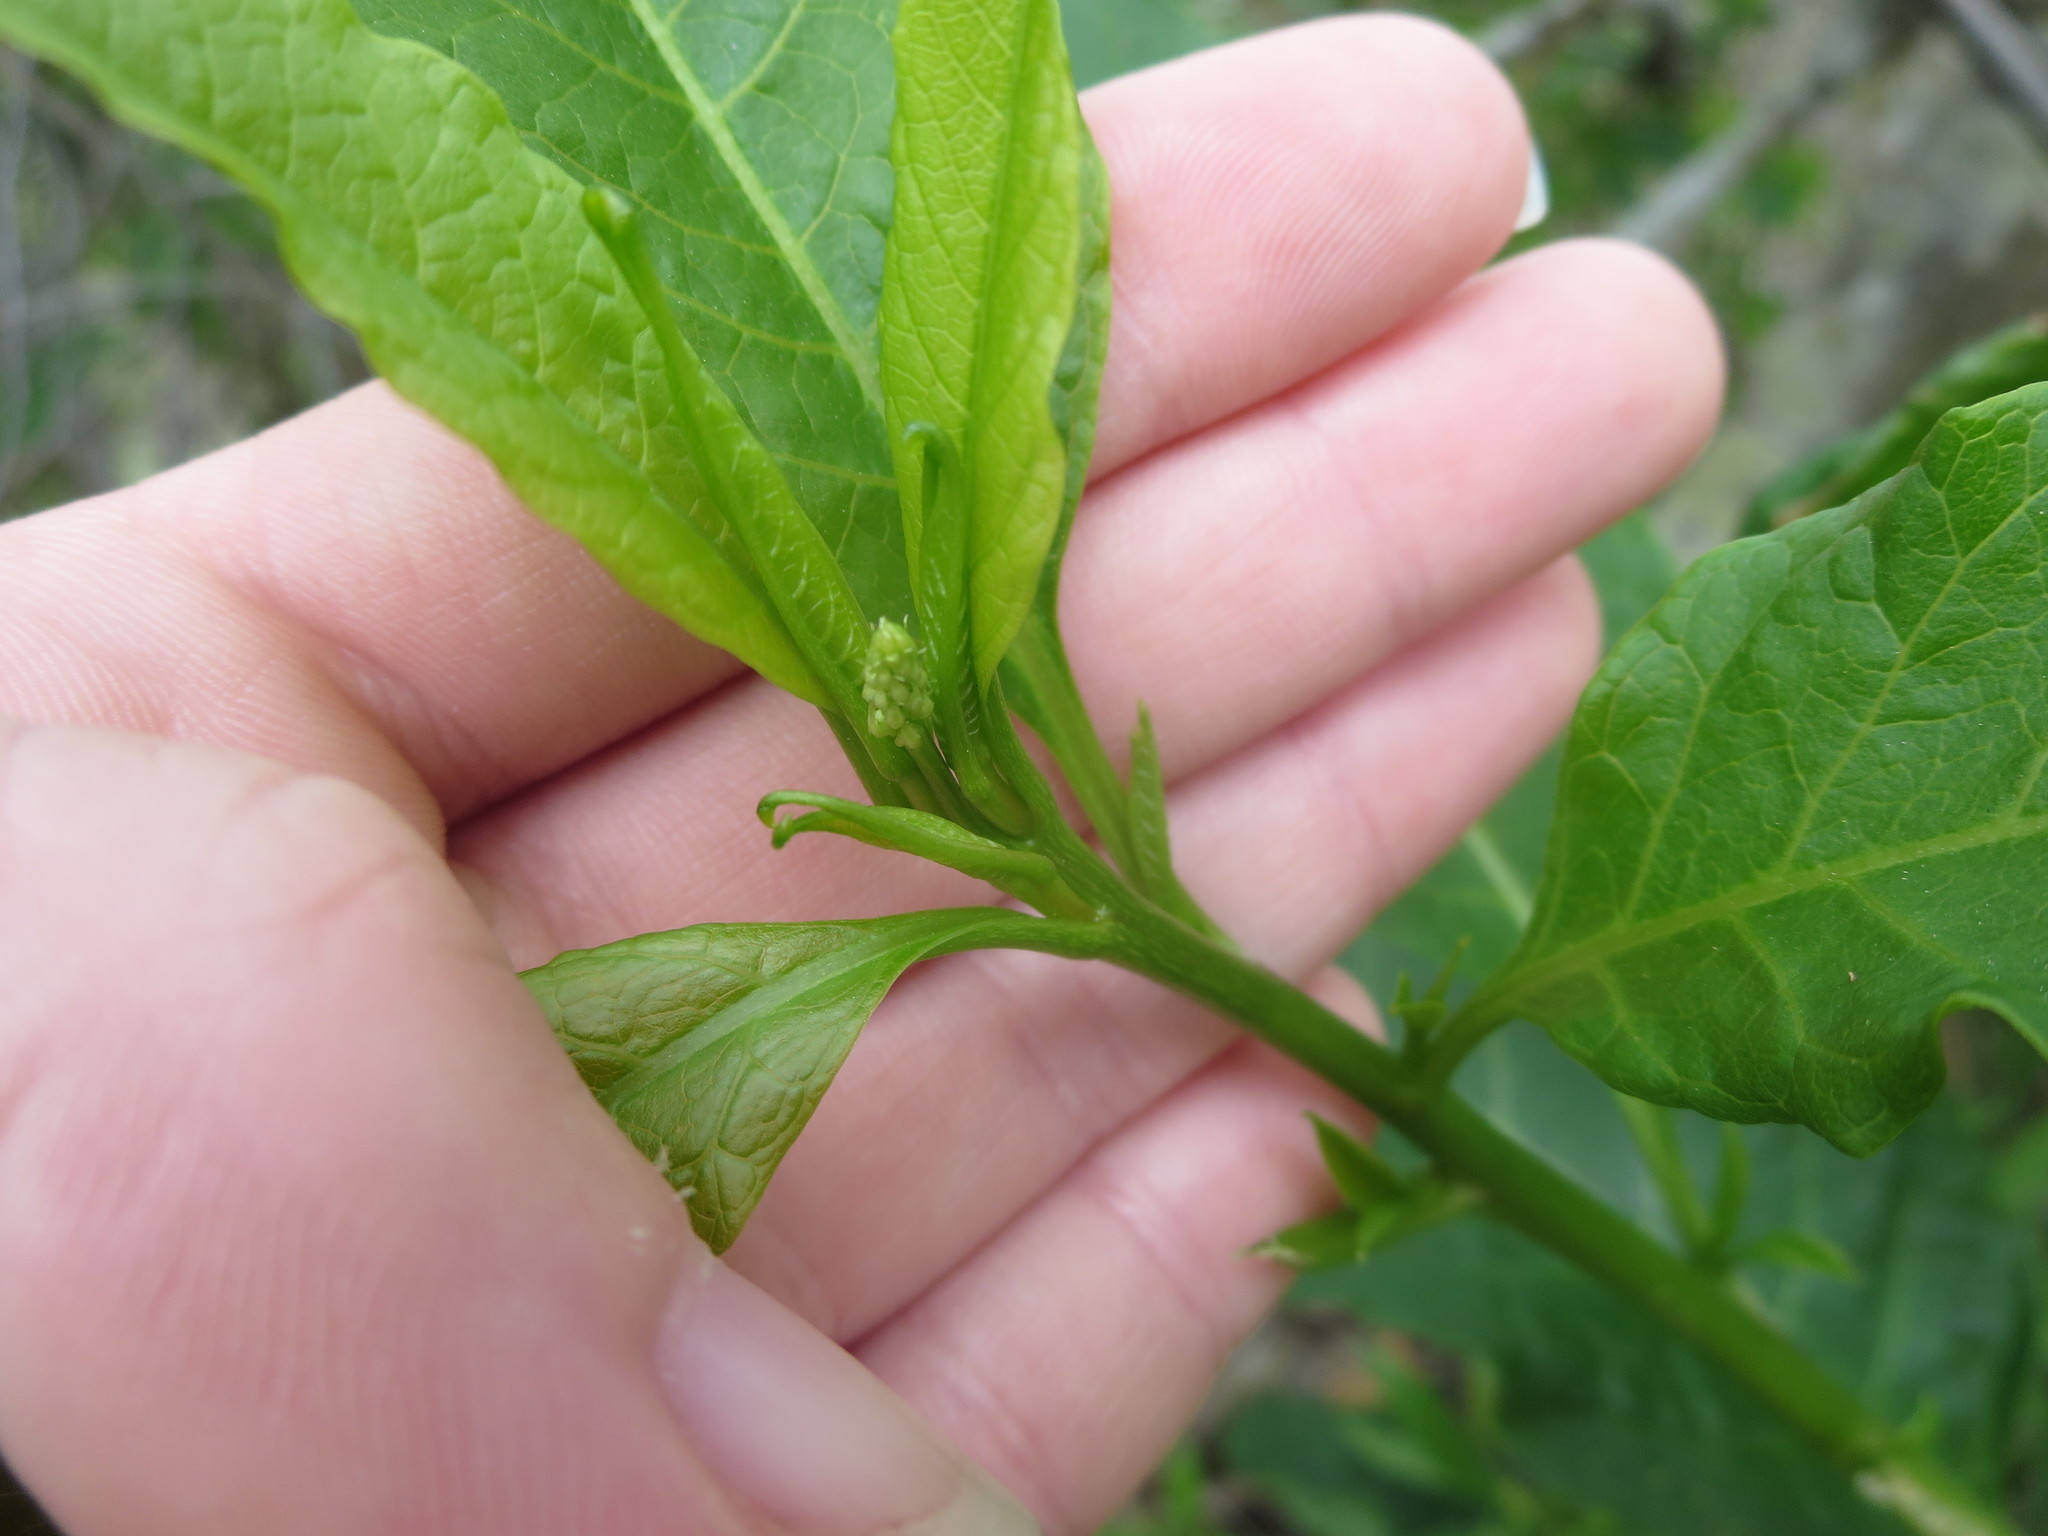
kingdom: Plantae
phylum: Tracheophyta
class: Magnoliopsida
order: Caryophyllales
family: Phytolaccaceae
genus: Phytolacca
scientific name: Phytolacca americana
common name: American pokeweed
